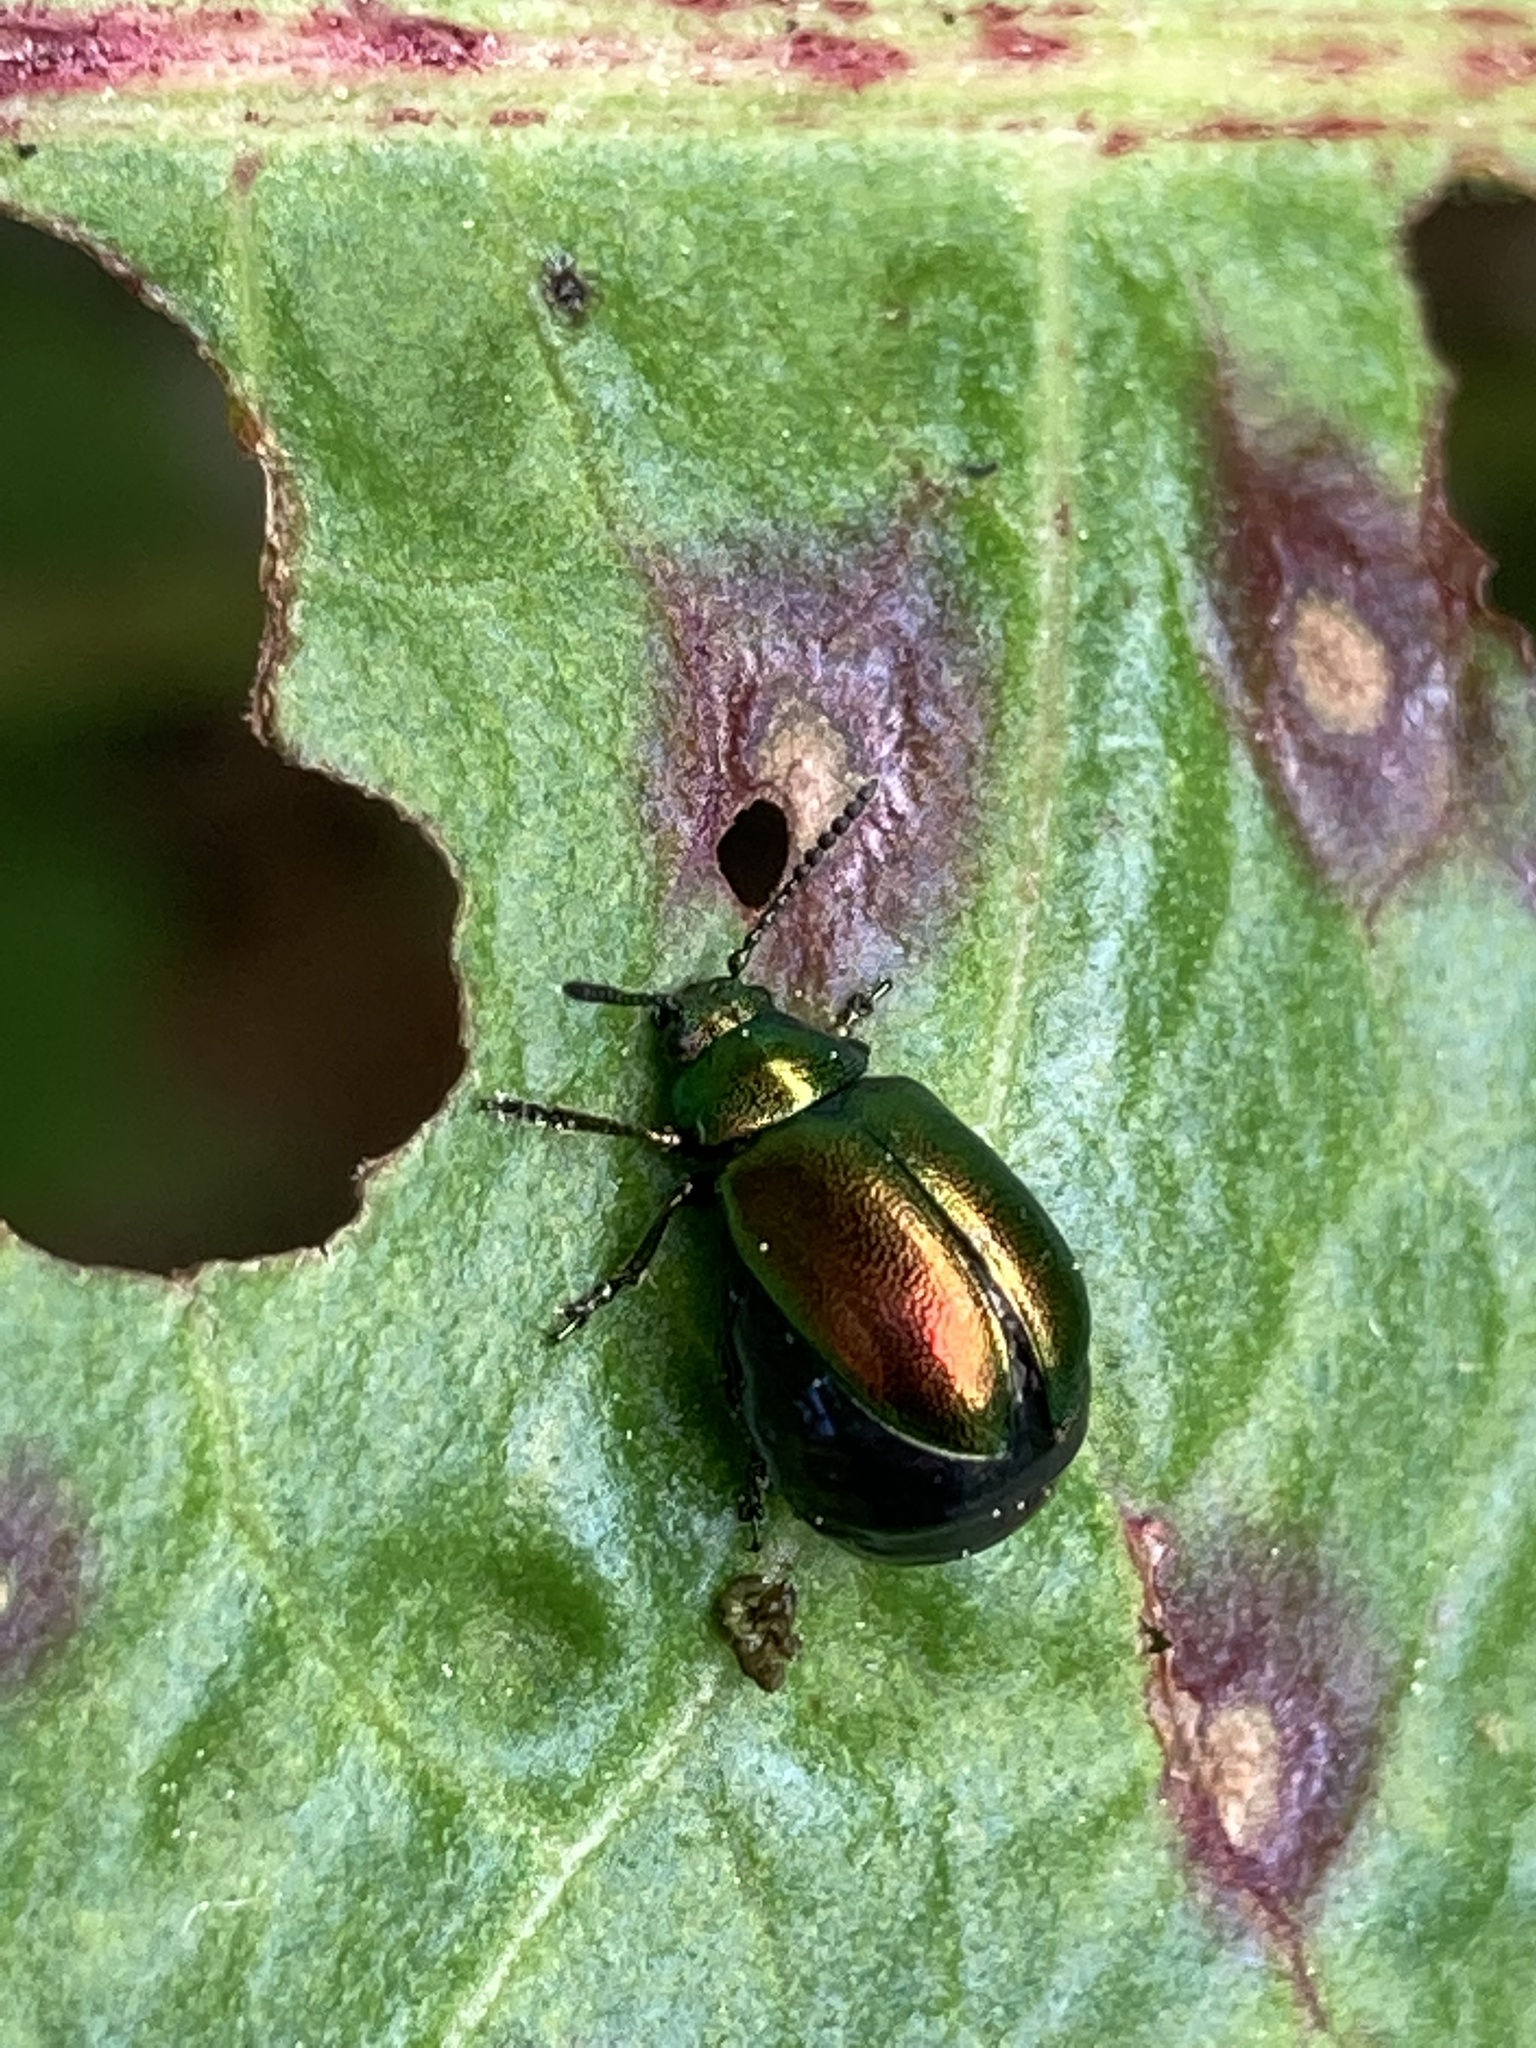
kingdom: Animalia
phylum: Arthropoda
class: Insecta
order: Coleoptera
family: Chrysomelidae
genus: Gastrophysa
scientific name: Gastrophysa viridula
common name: Green dock beetle
